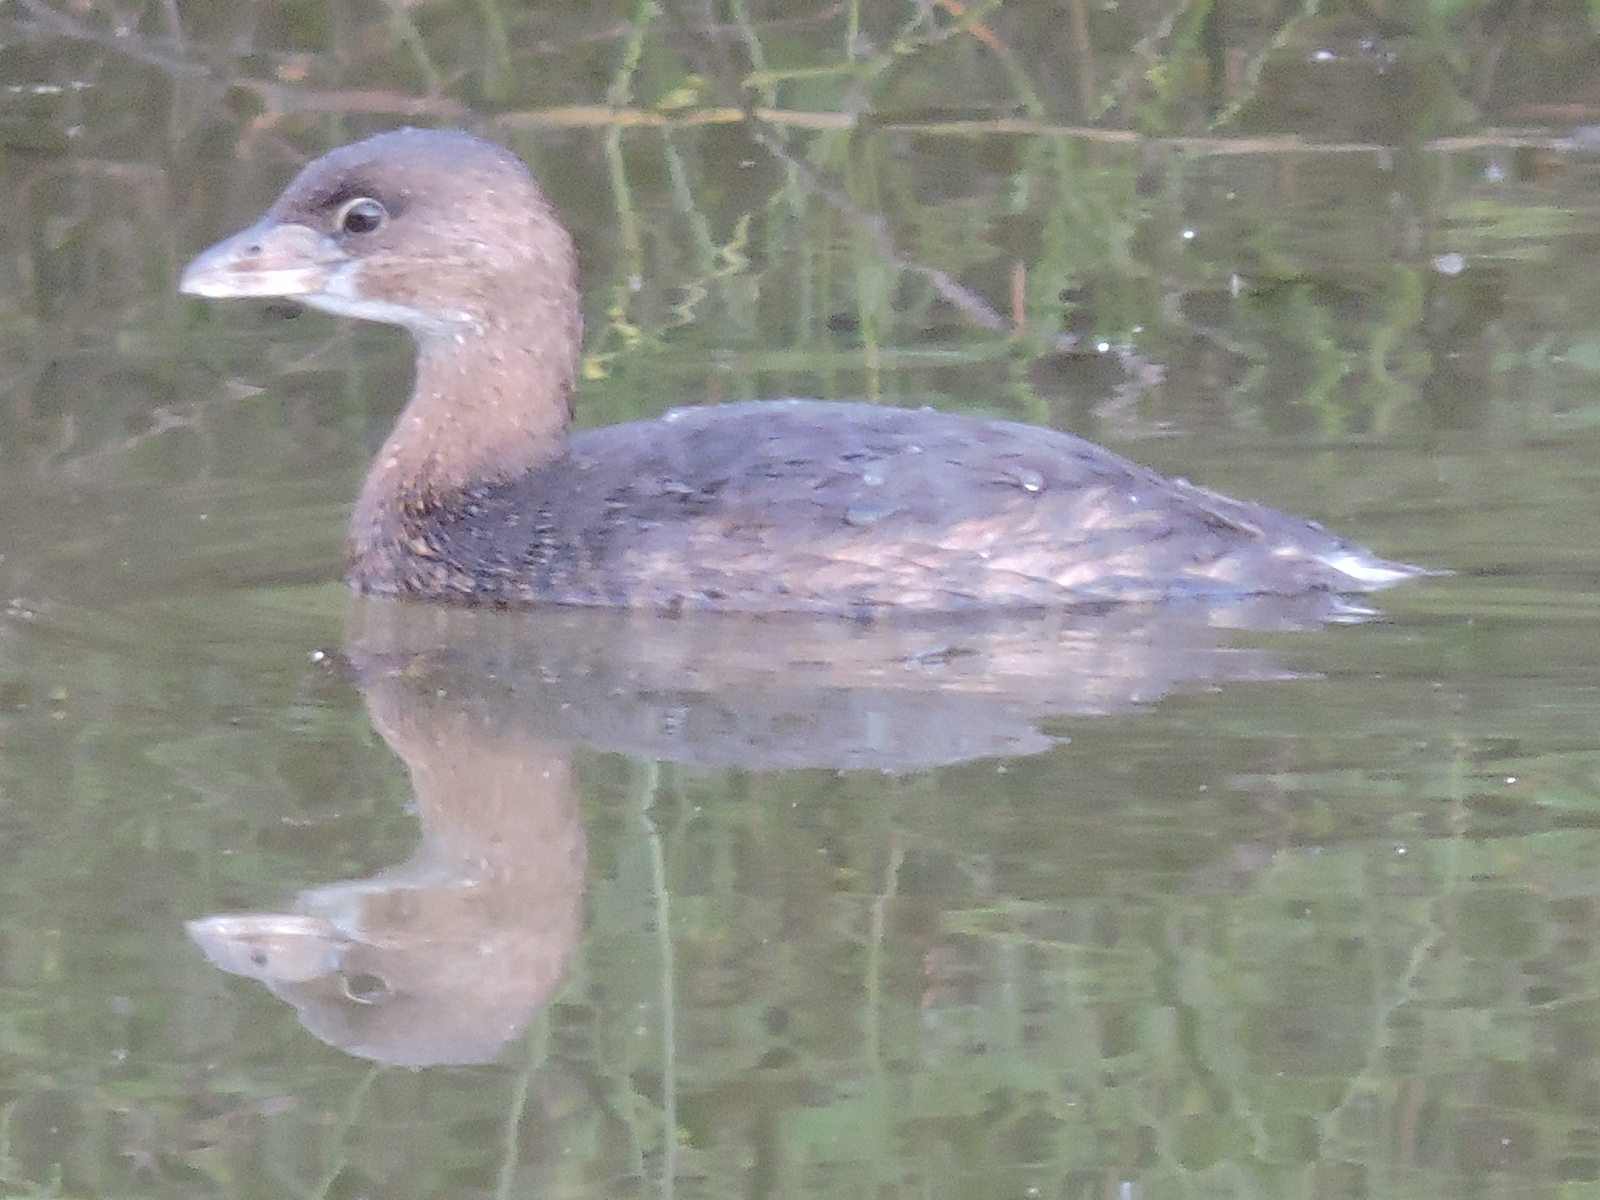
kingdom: Animalia
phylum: Chordata
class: Aves
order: Podicipediformes
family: Podicipedidae
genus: Podilymbus
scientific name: Podilymbus podiceps
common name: Pied-billed grebe
